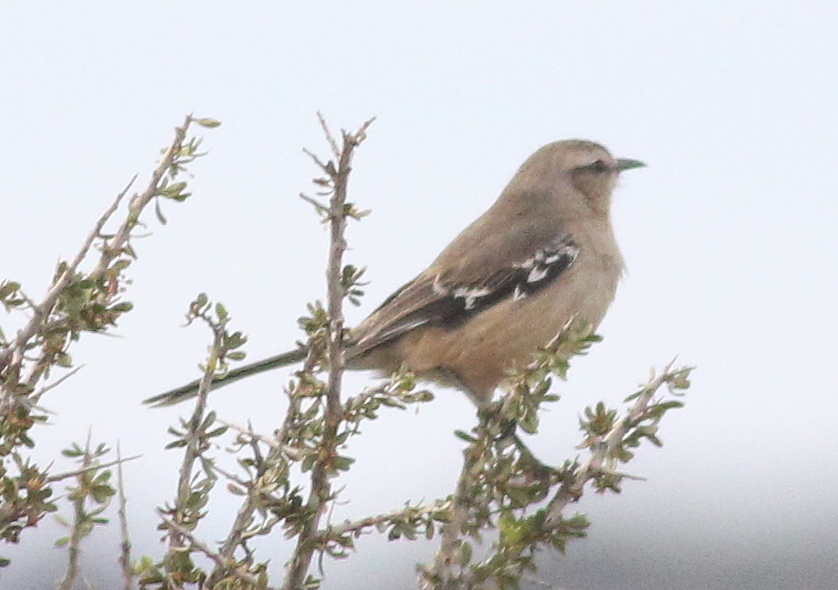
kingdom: Animalia
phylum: Chordata
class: Aves
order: Passeriformes
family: Mimidae
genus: Mimus
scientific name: Mimus patagonicus
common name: Patagonian mockingbird
